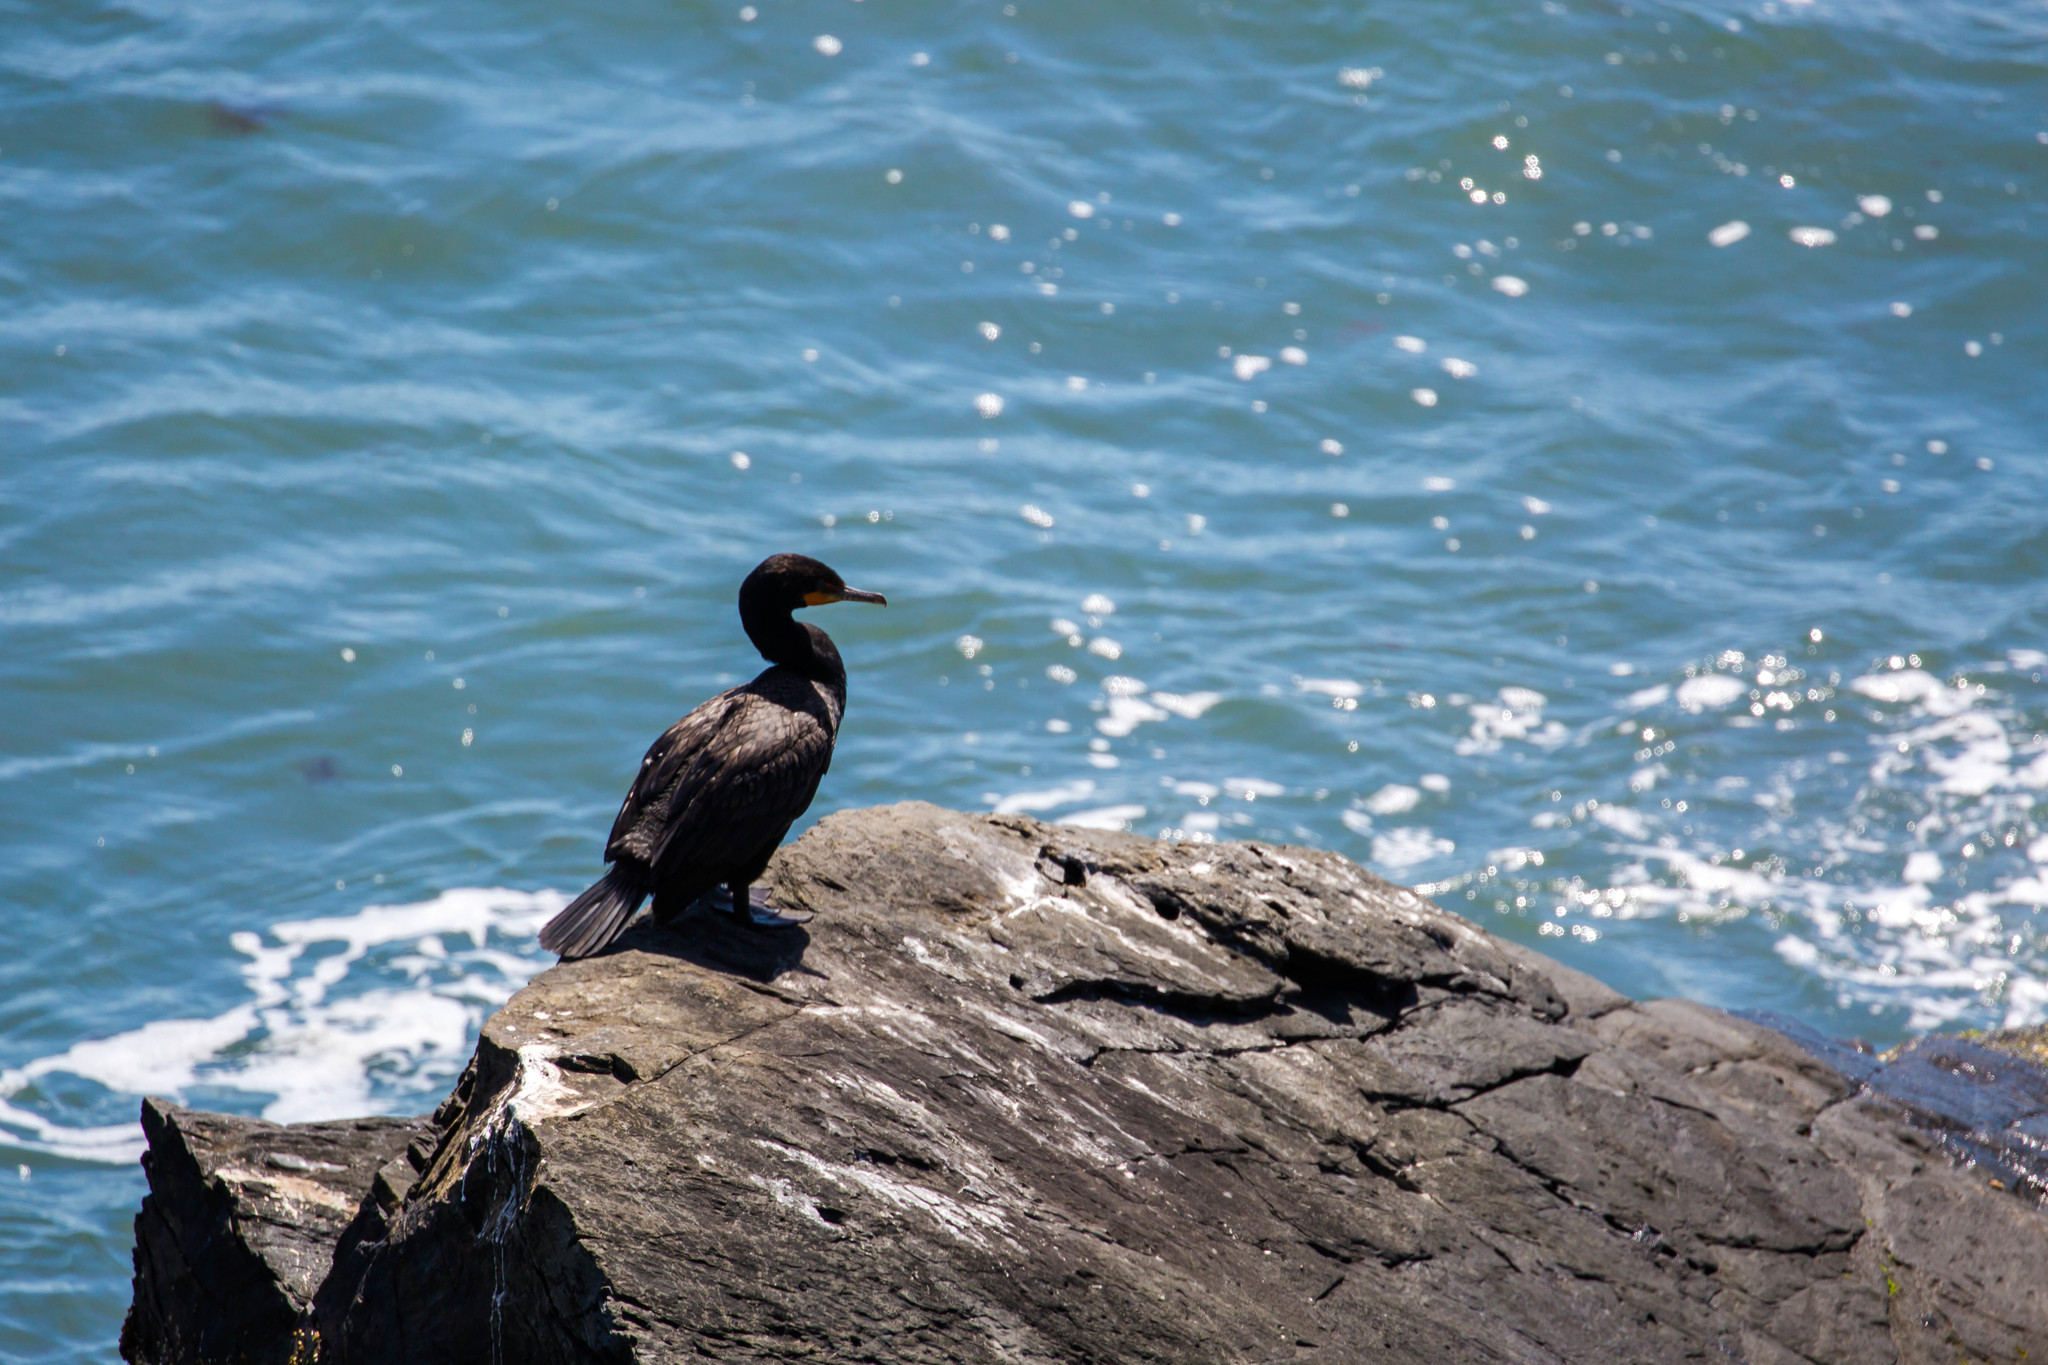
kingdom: Animalia
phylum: Chordata
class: Aves
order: Suliformes
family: Phalacrocoracidae
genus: Phalacrocorax
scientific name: Phalacrocorax auritus
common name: Double-crested cormorant
